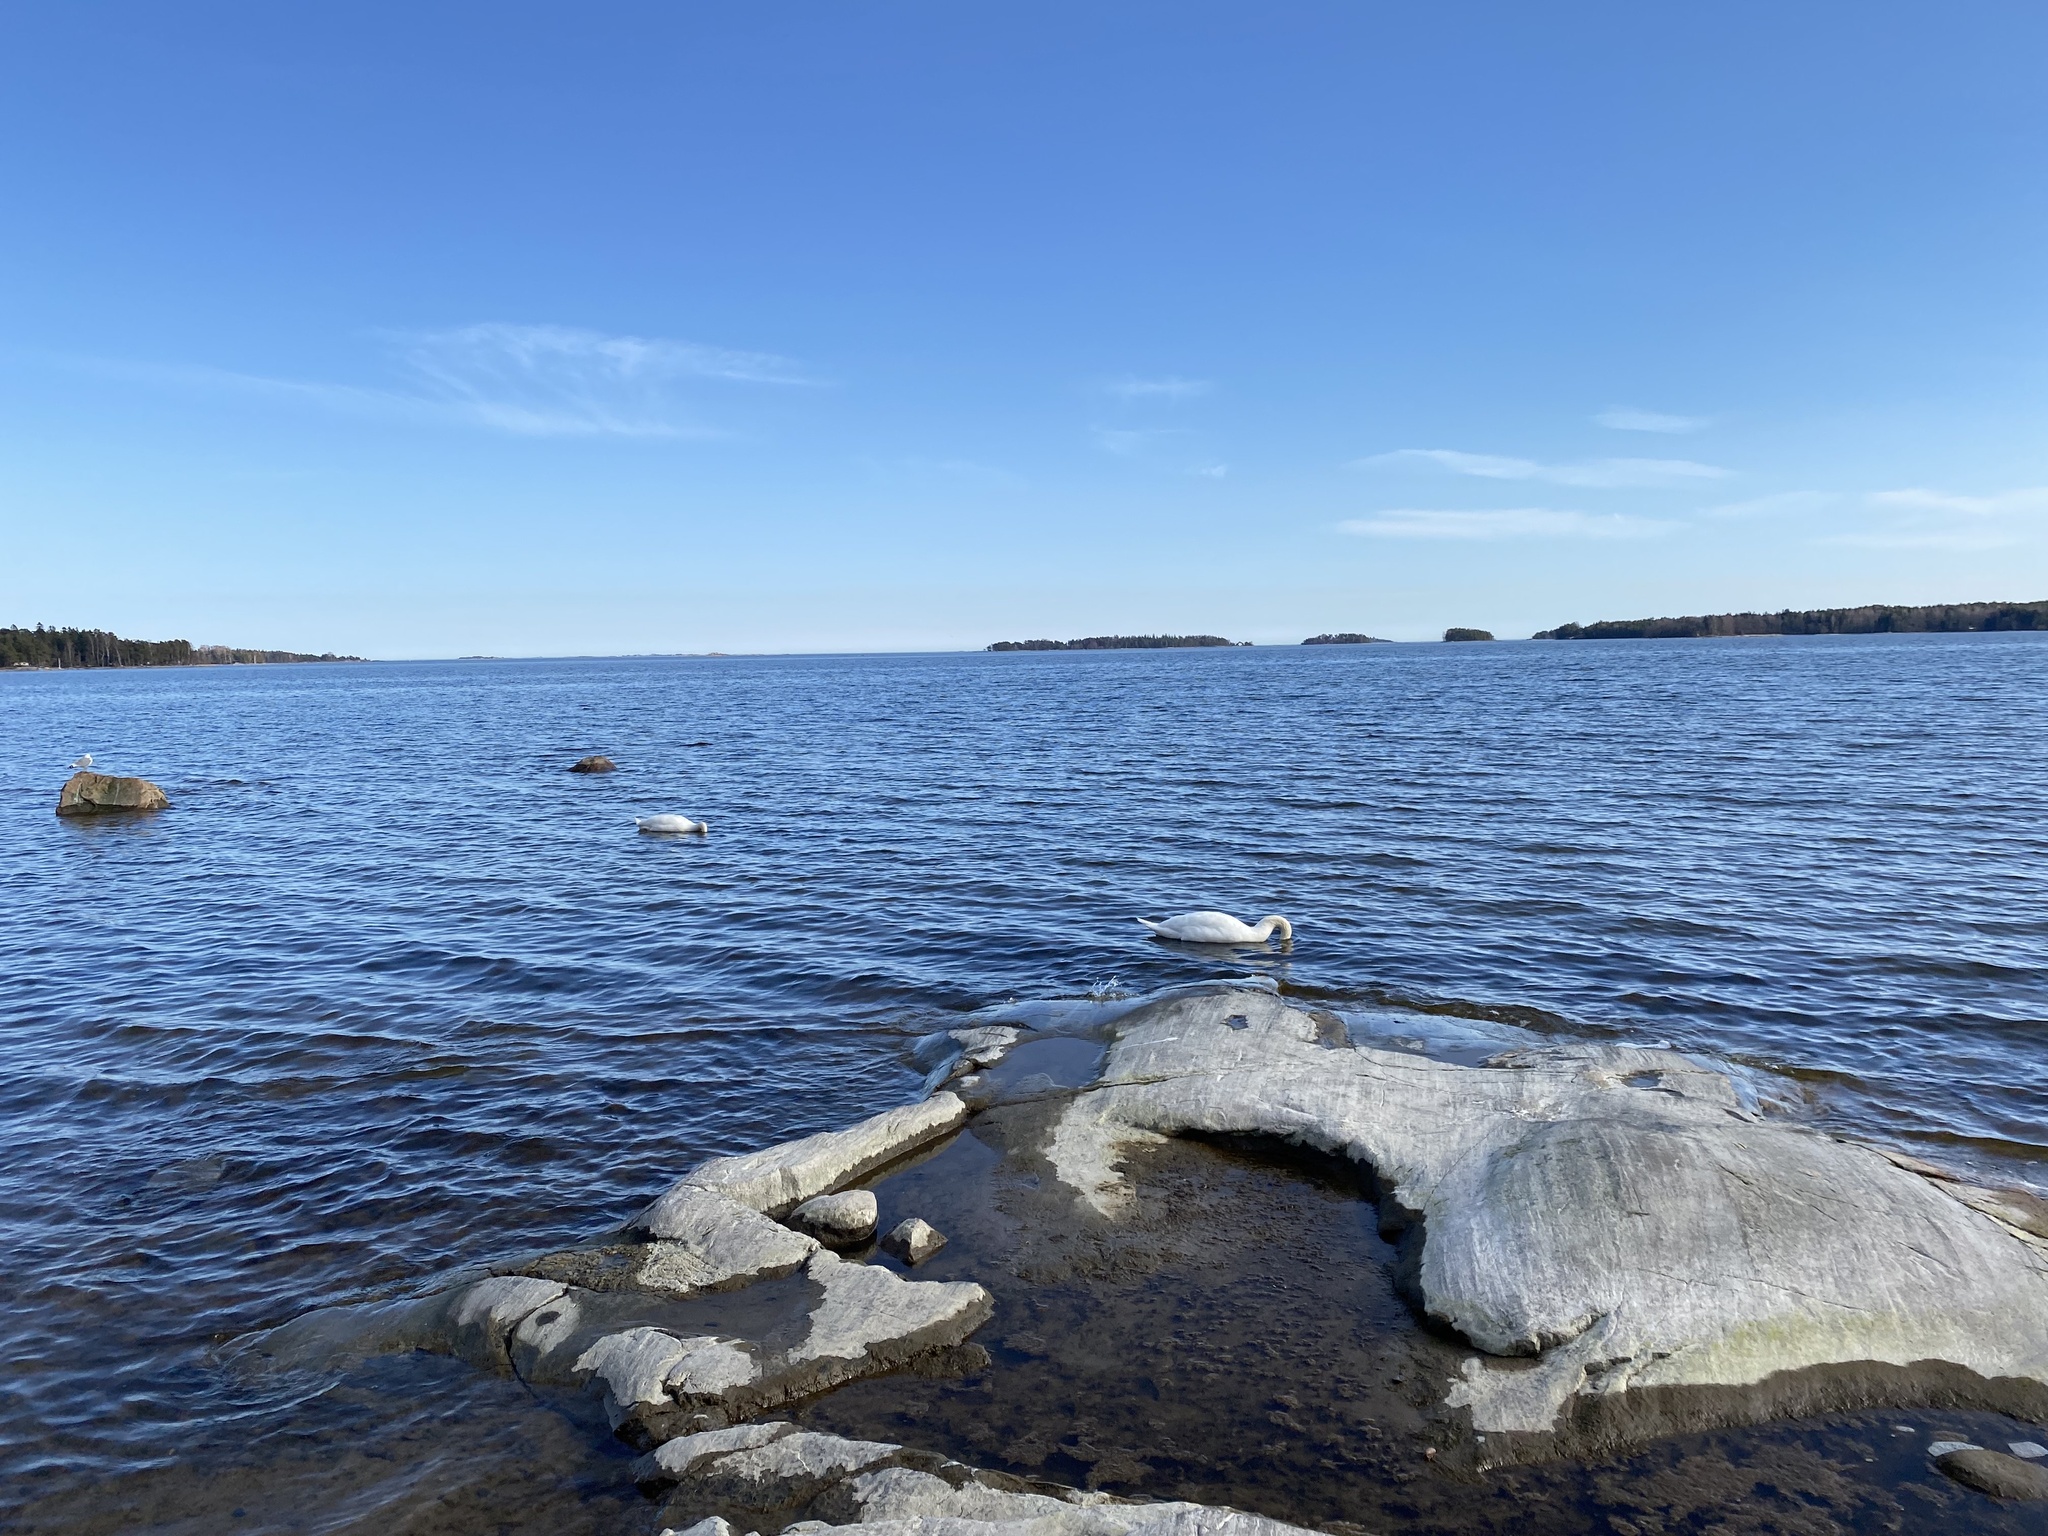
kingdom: Animalia
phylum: Chordata
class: Aves
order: Anseriformes
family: Anatidae
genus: Cygnus
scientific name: Cygnus olor
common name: Mute swan
